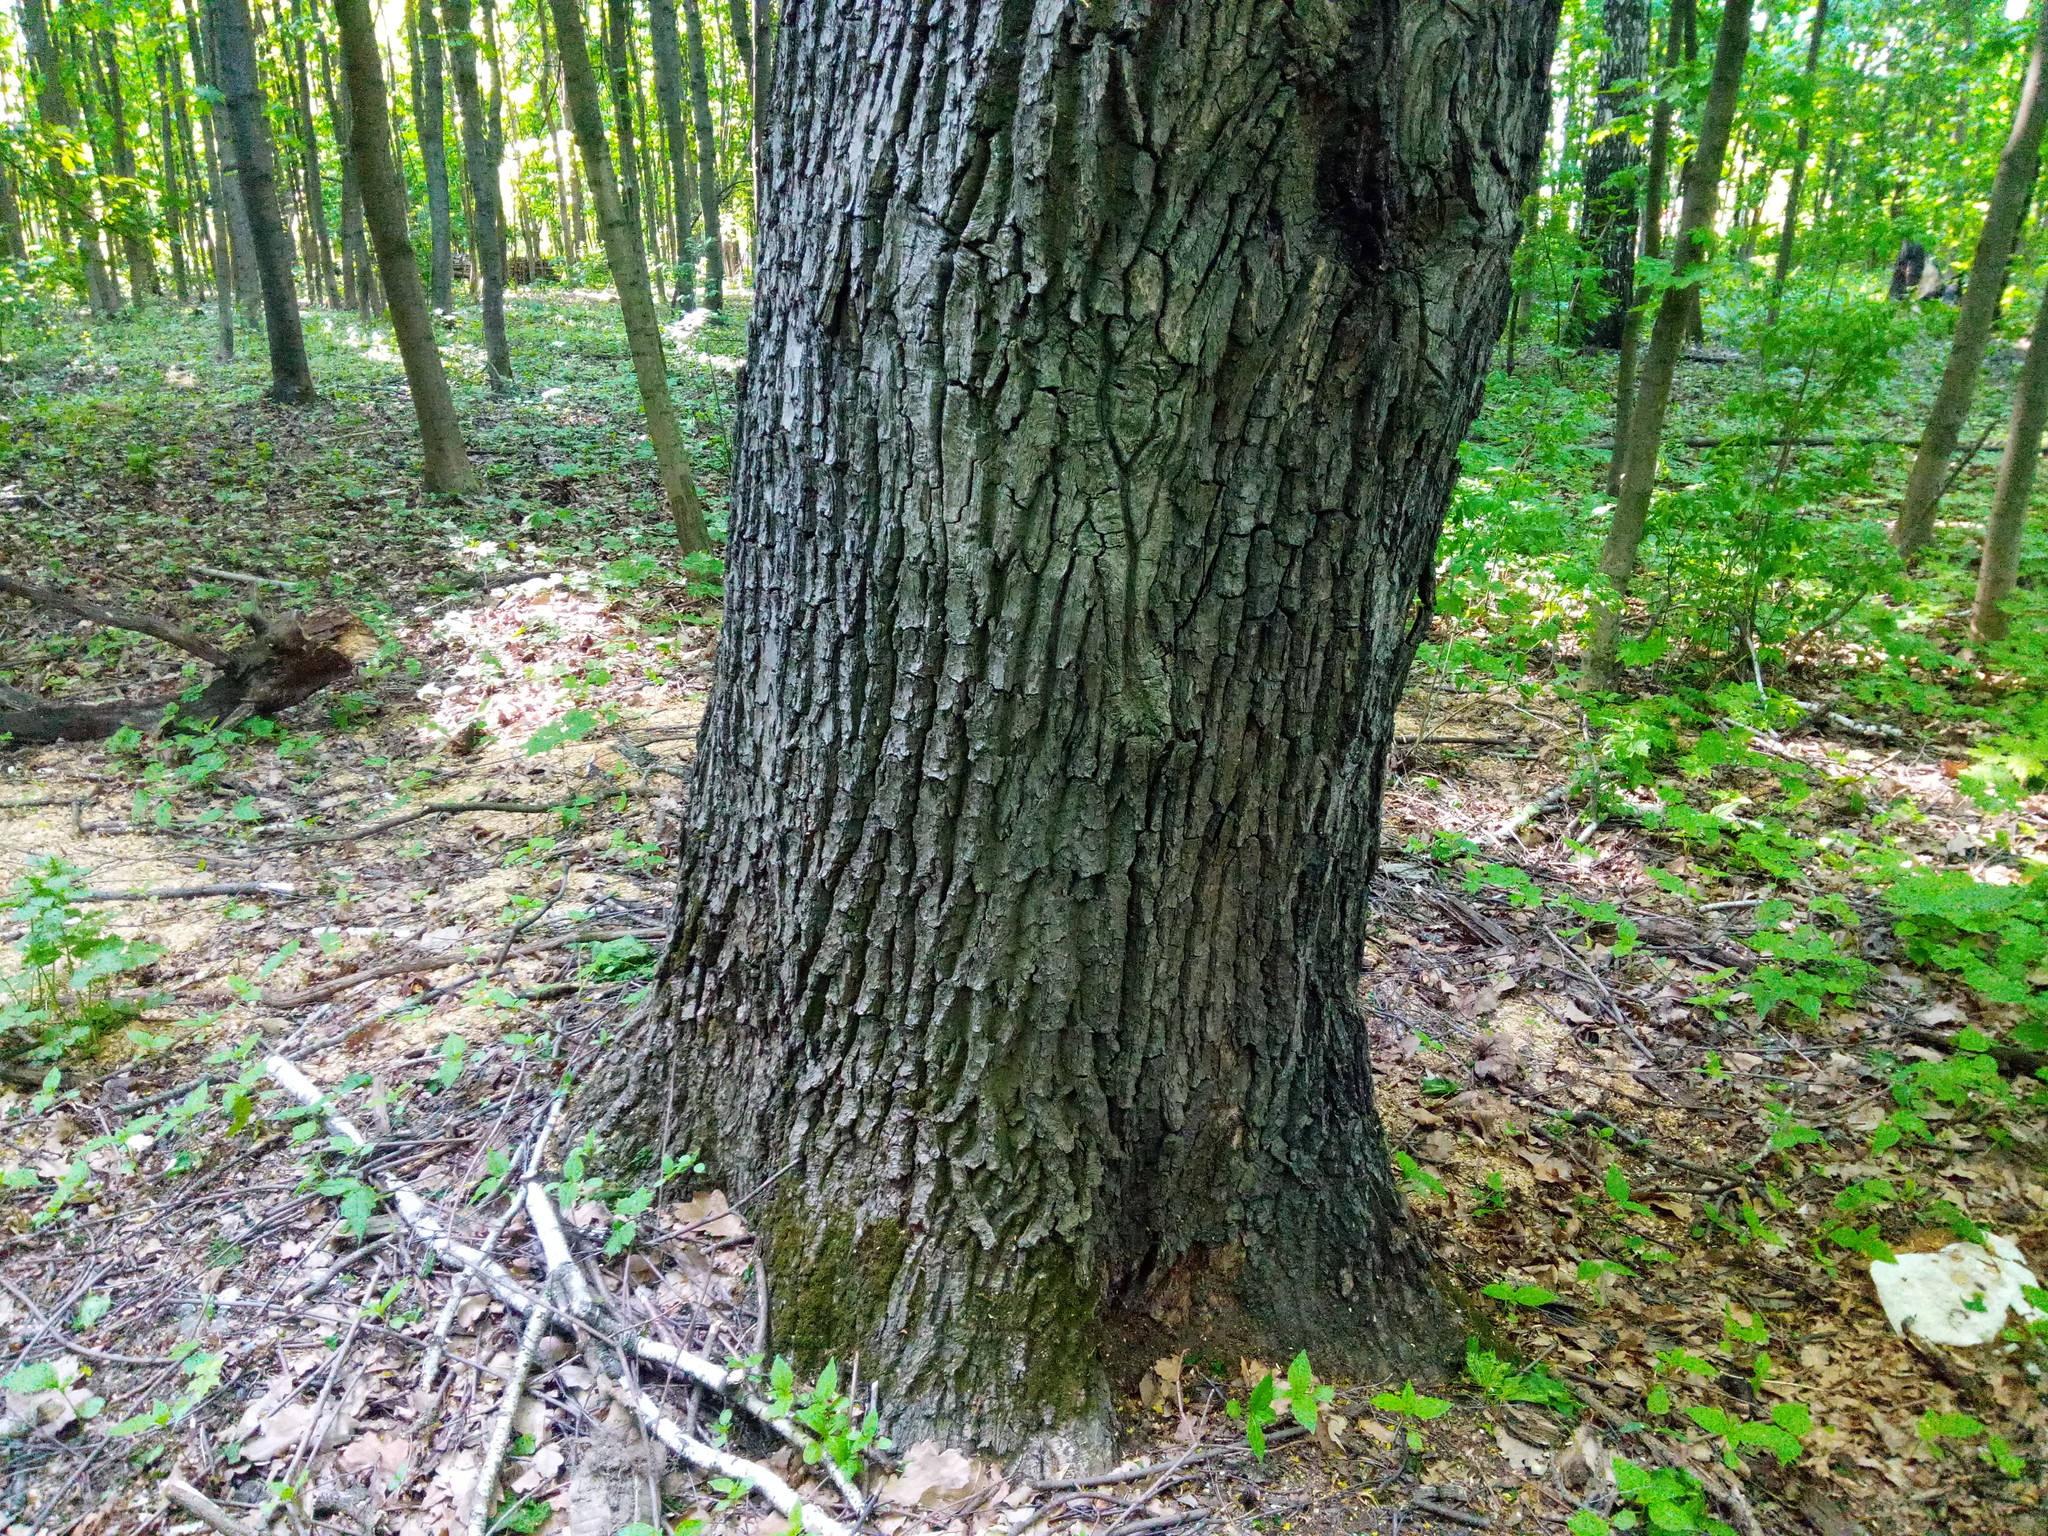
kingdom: Plantae
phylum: Tracheophyta
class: Magnoliopsida
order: Fagales
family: Fagaceae
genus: Quercus
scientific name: Quercus robur
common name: Pedunculate oak
